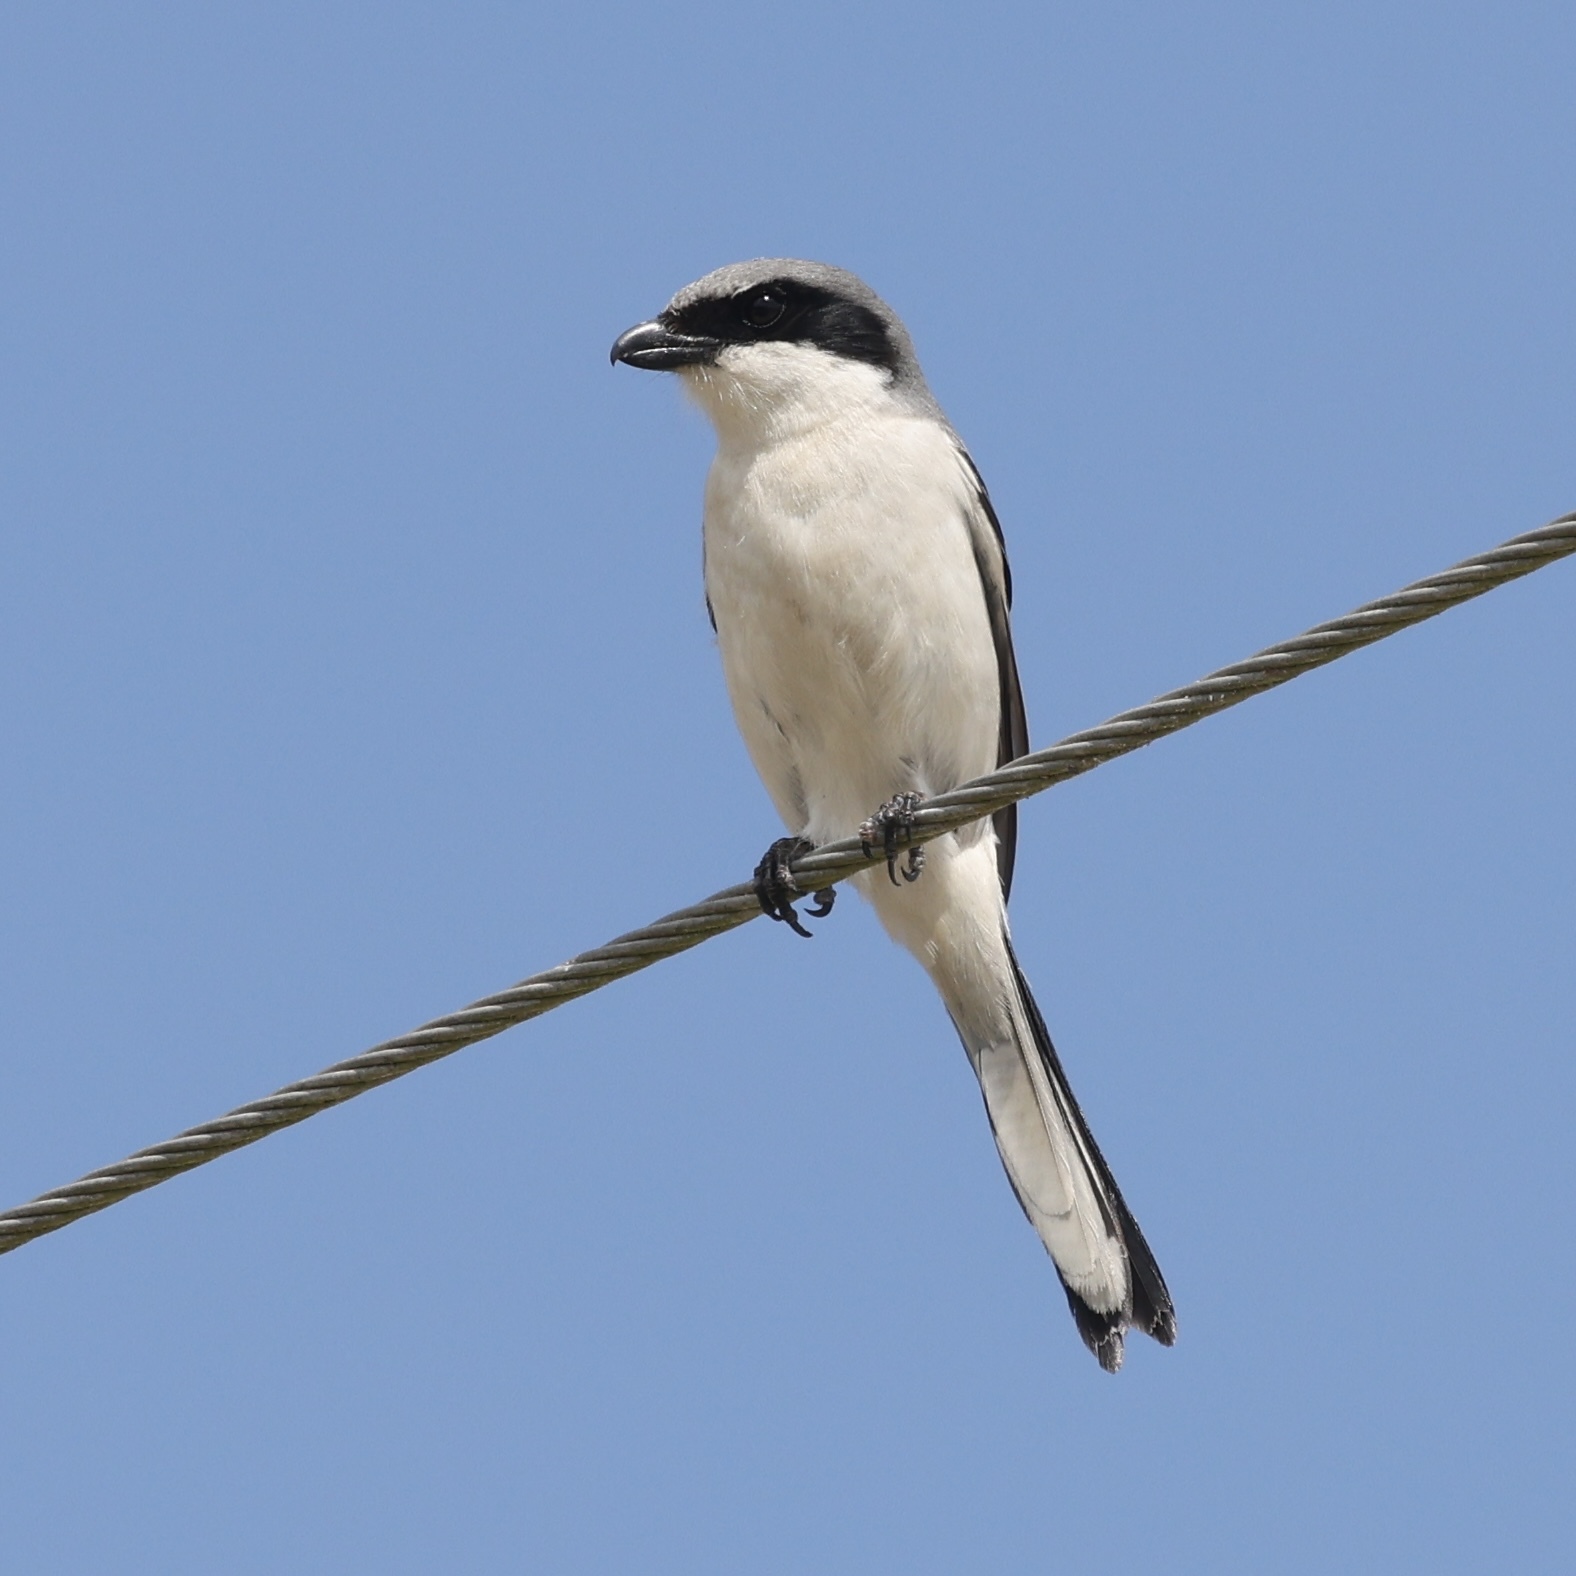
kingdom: Animalia
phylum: Chordata
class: Aves
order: Passeriformes
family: Laniidae
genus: Lanius
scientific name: Lanius ludovicianus
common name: Loggerhead shrike
